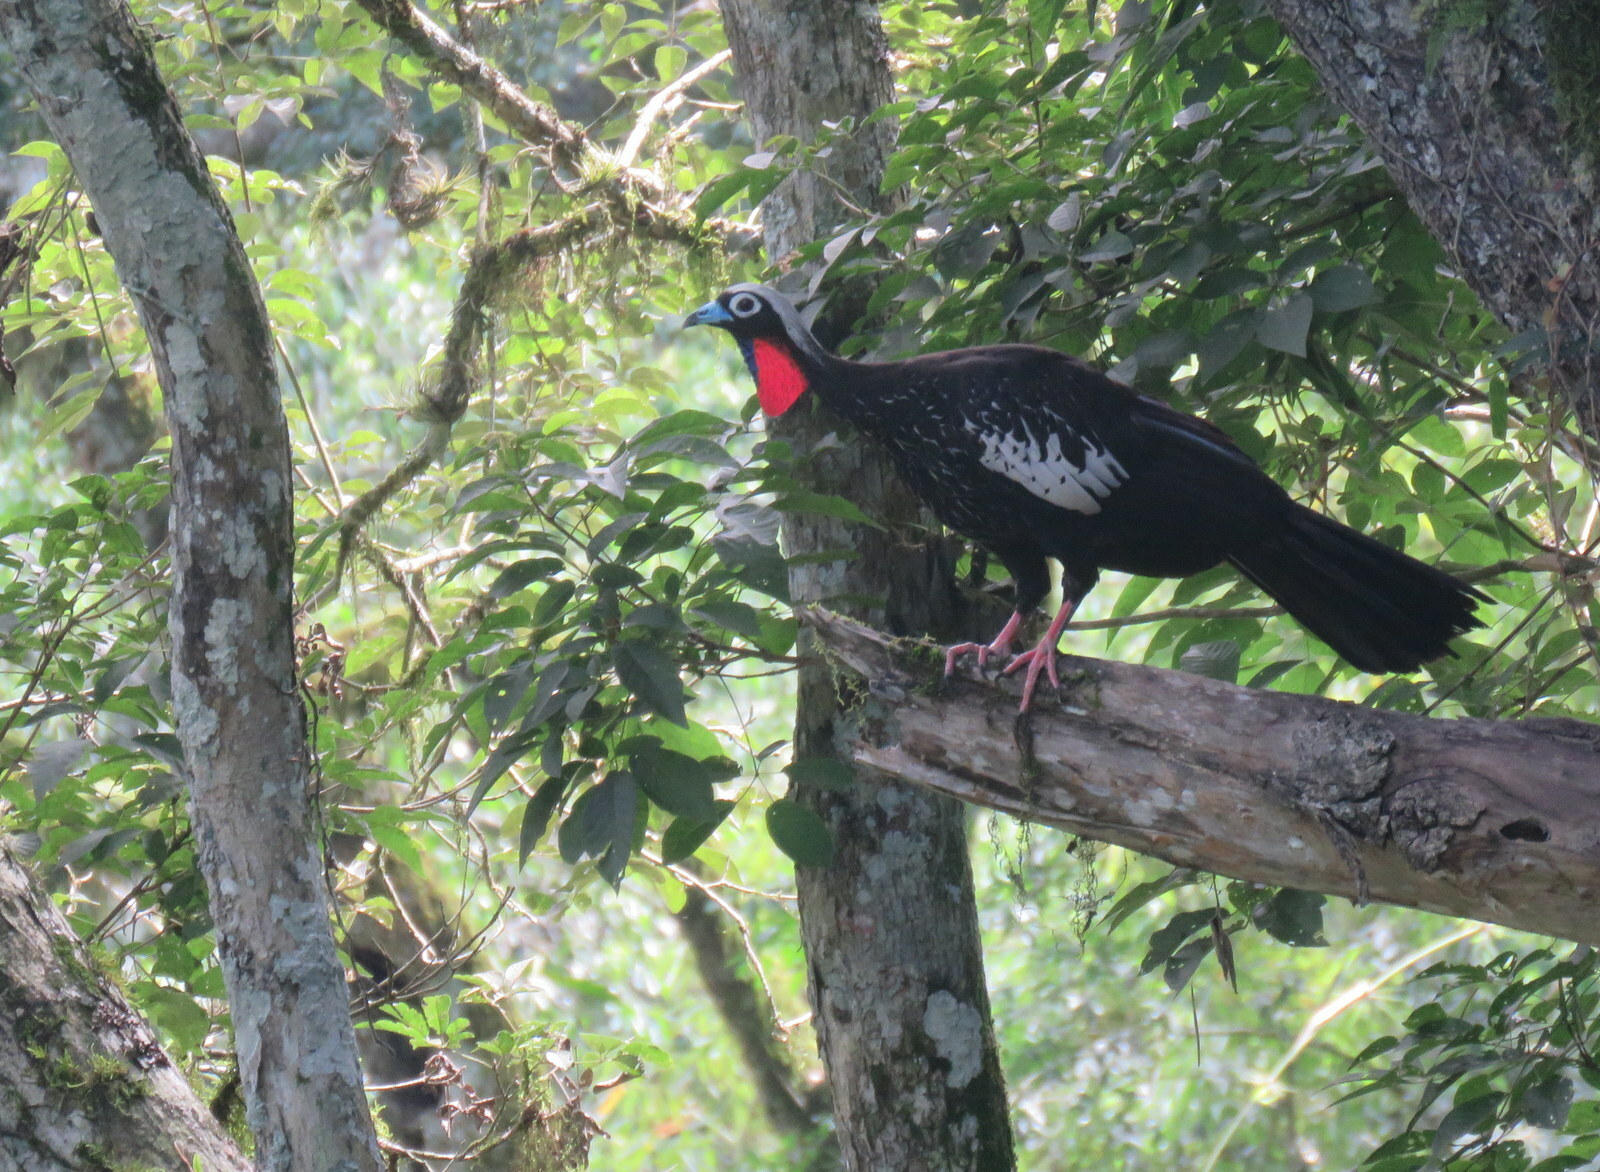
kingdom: Animalia
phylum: Chordata
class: Aves
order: Galliformes
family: Cracidae
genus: Pipile
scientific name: Pipile jacutinga
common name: Black-fronted piping-guan
